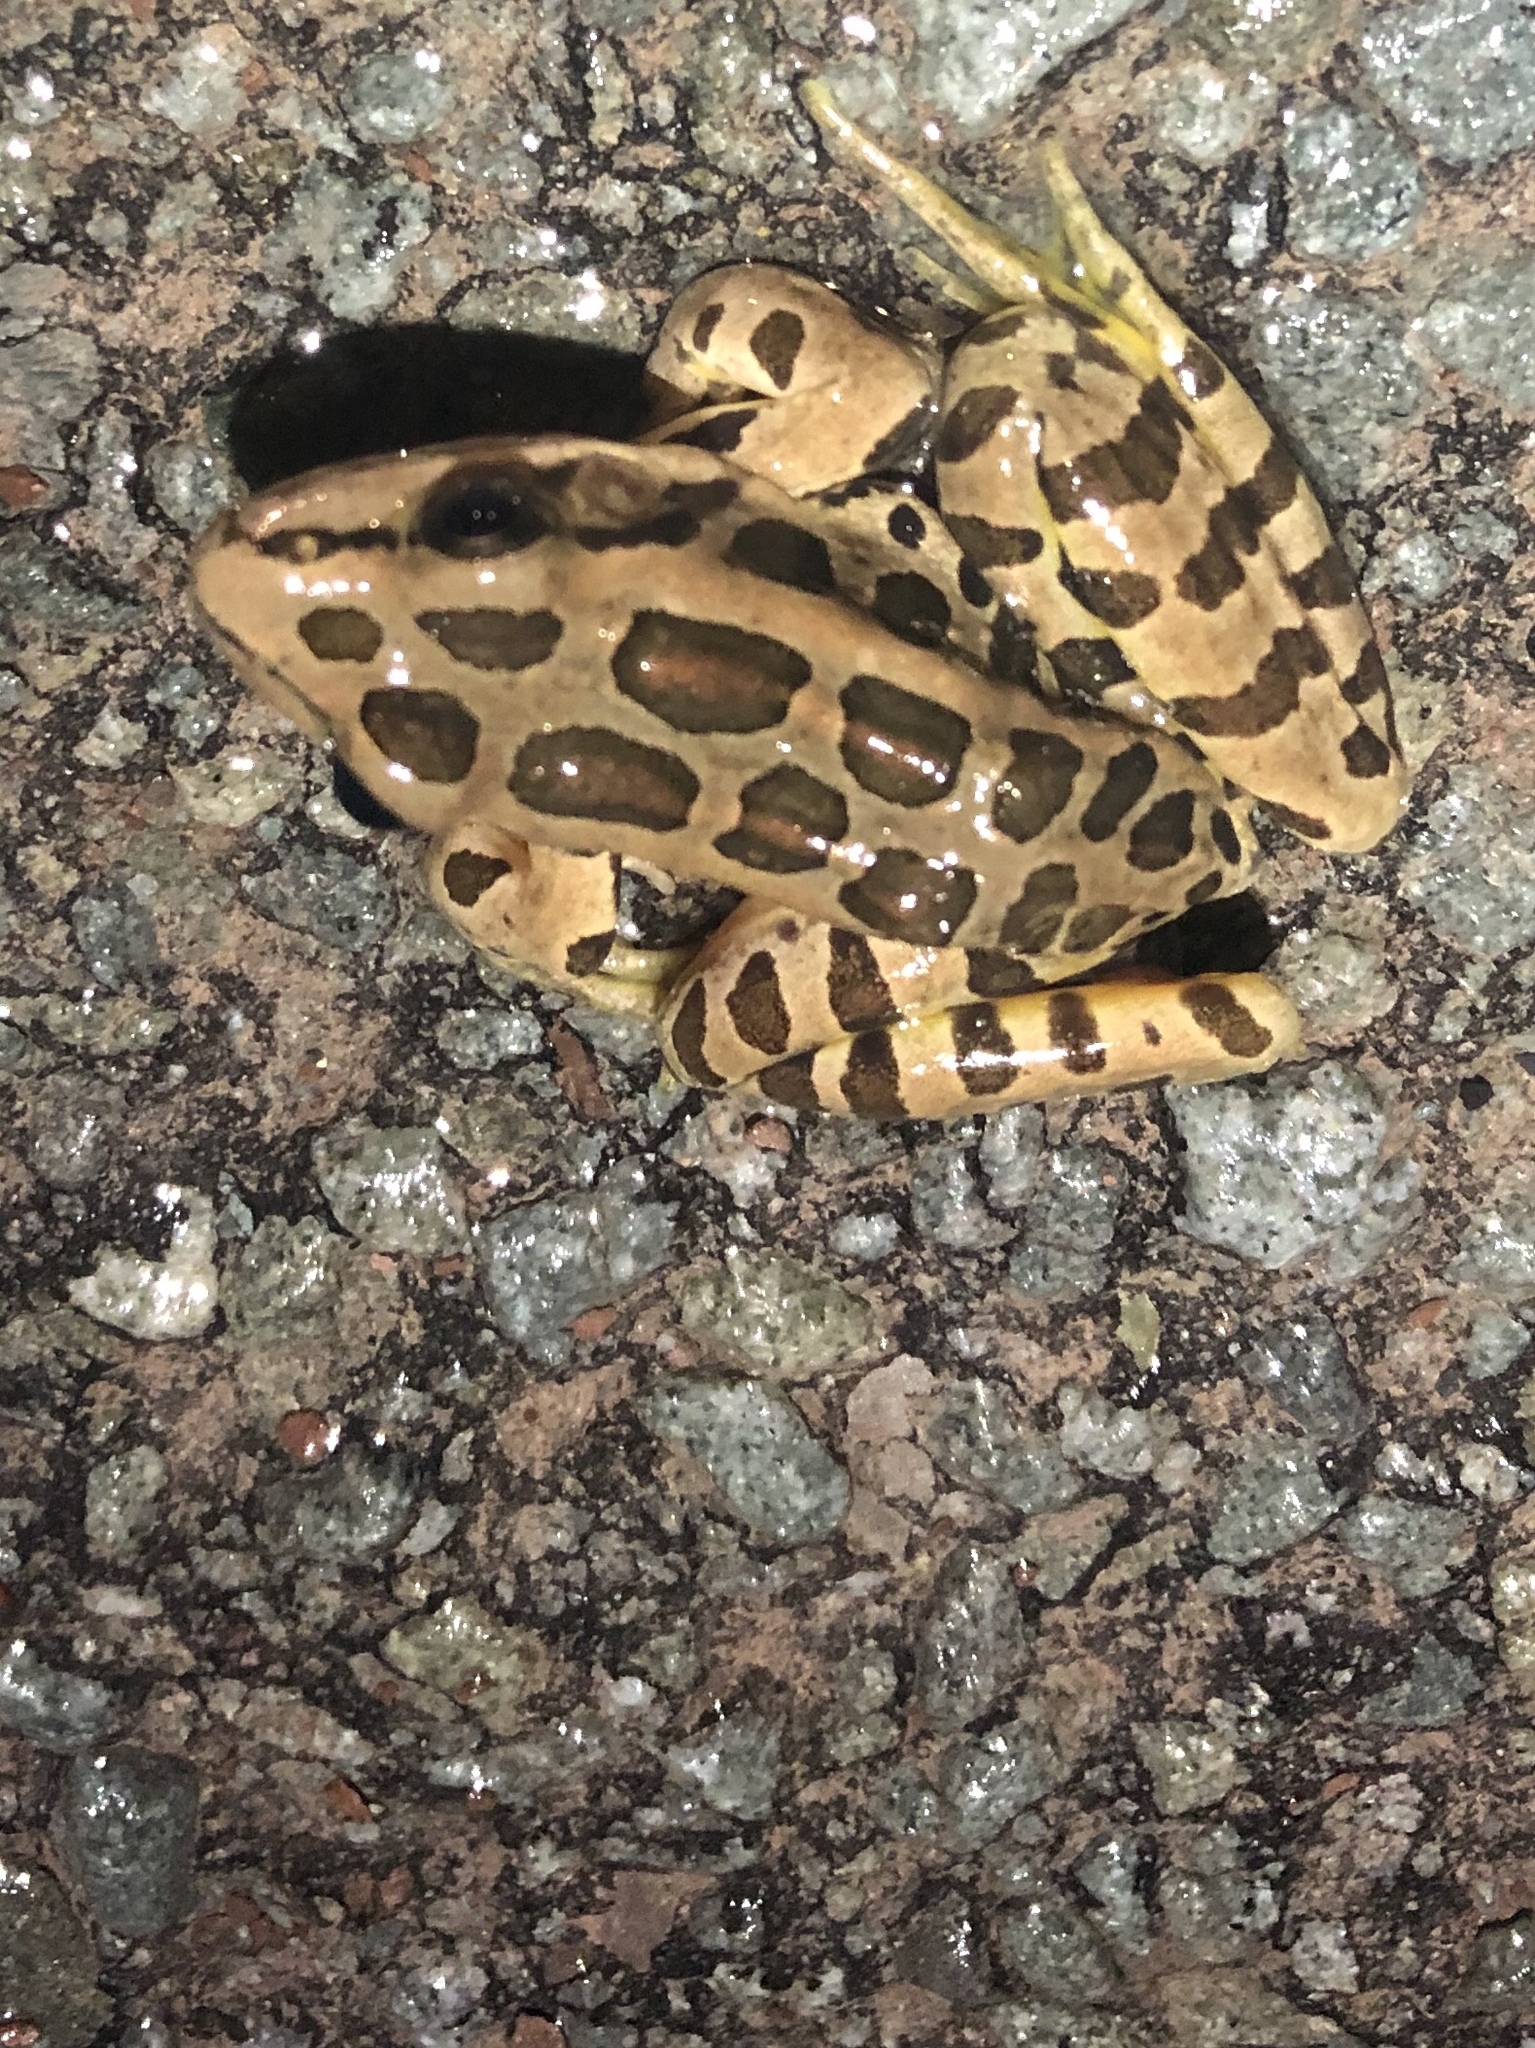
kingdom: Animalia
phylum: Chordata
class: Amphibia
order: Anura
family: Ranidae
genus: Lithobates
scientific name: Lithobates palustris
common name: Pickerel frog
